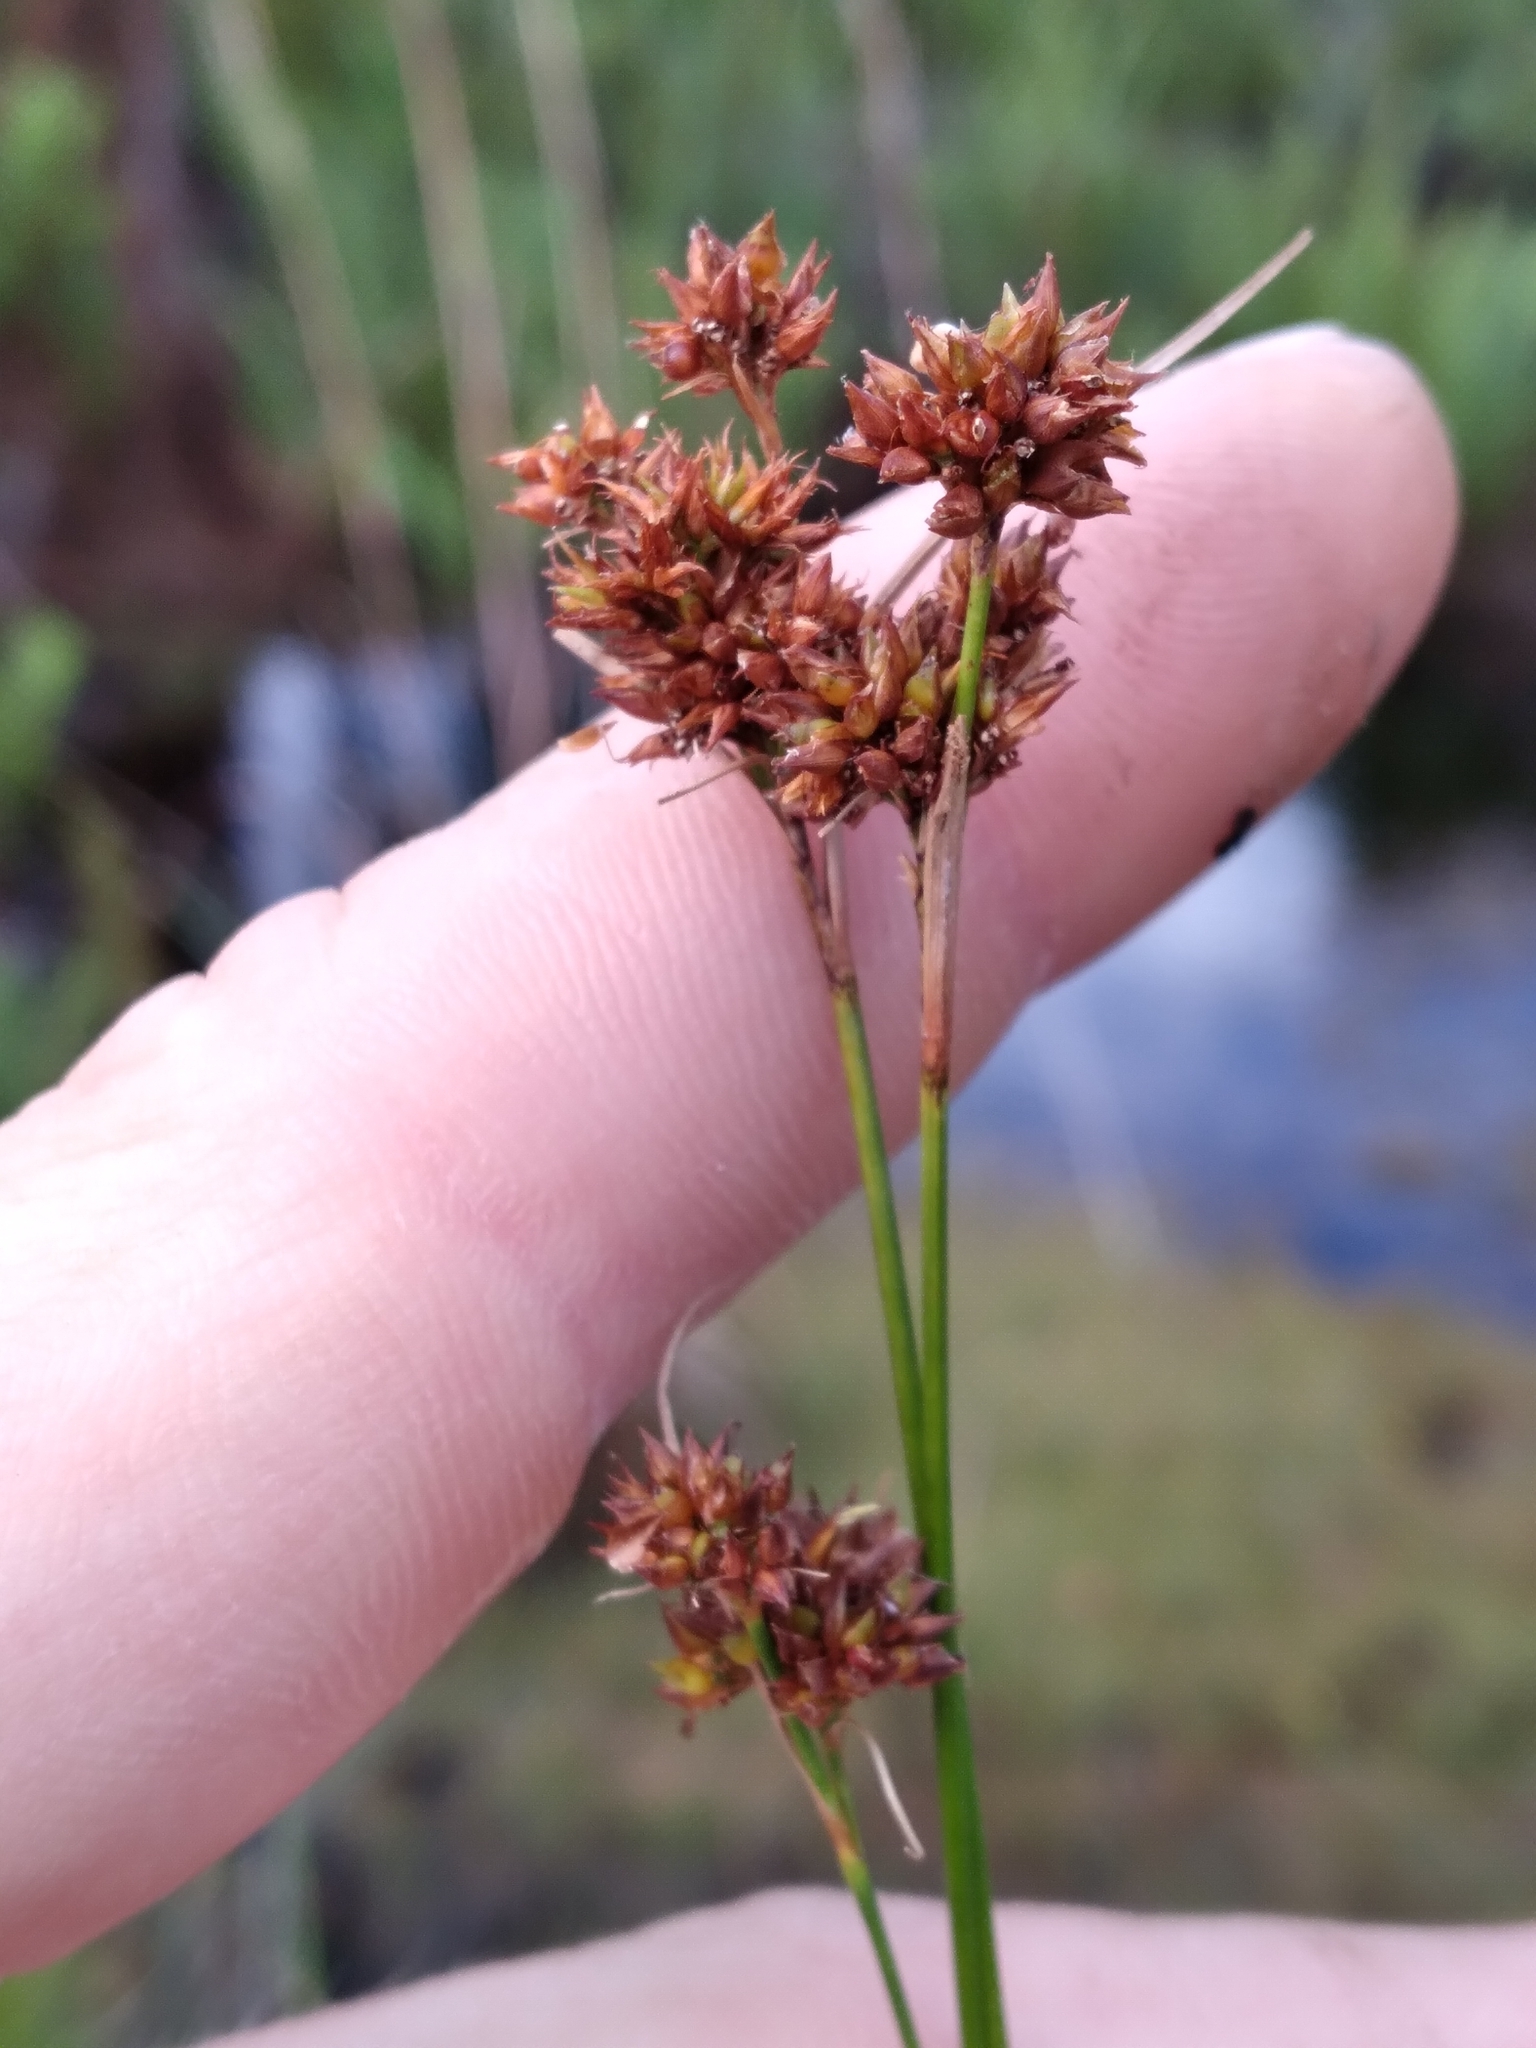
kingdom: Plantae
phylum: Tracheophyta
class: Liliopsida
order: Poales
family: Cyperaceae
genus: Rhynchospora
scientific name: Rhynchospora fascicularis
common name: Fascicled beak sedge
